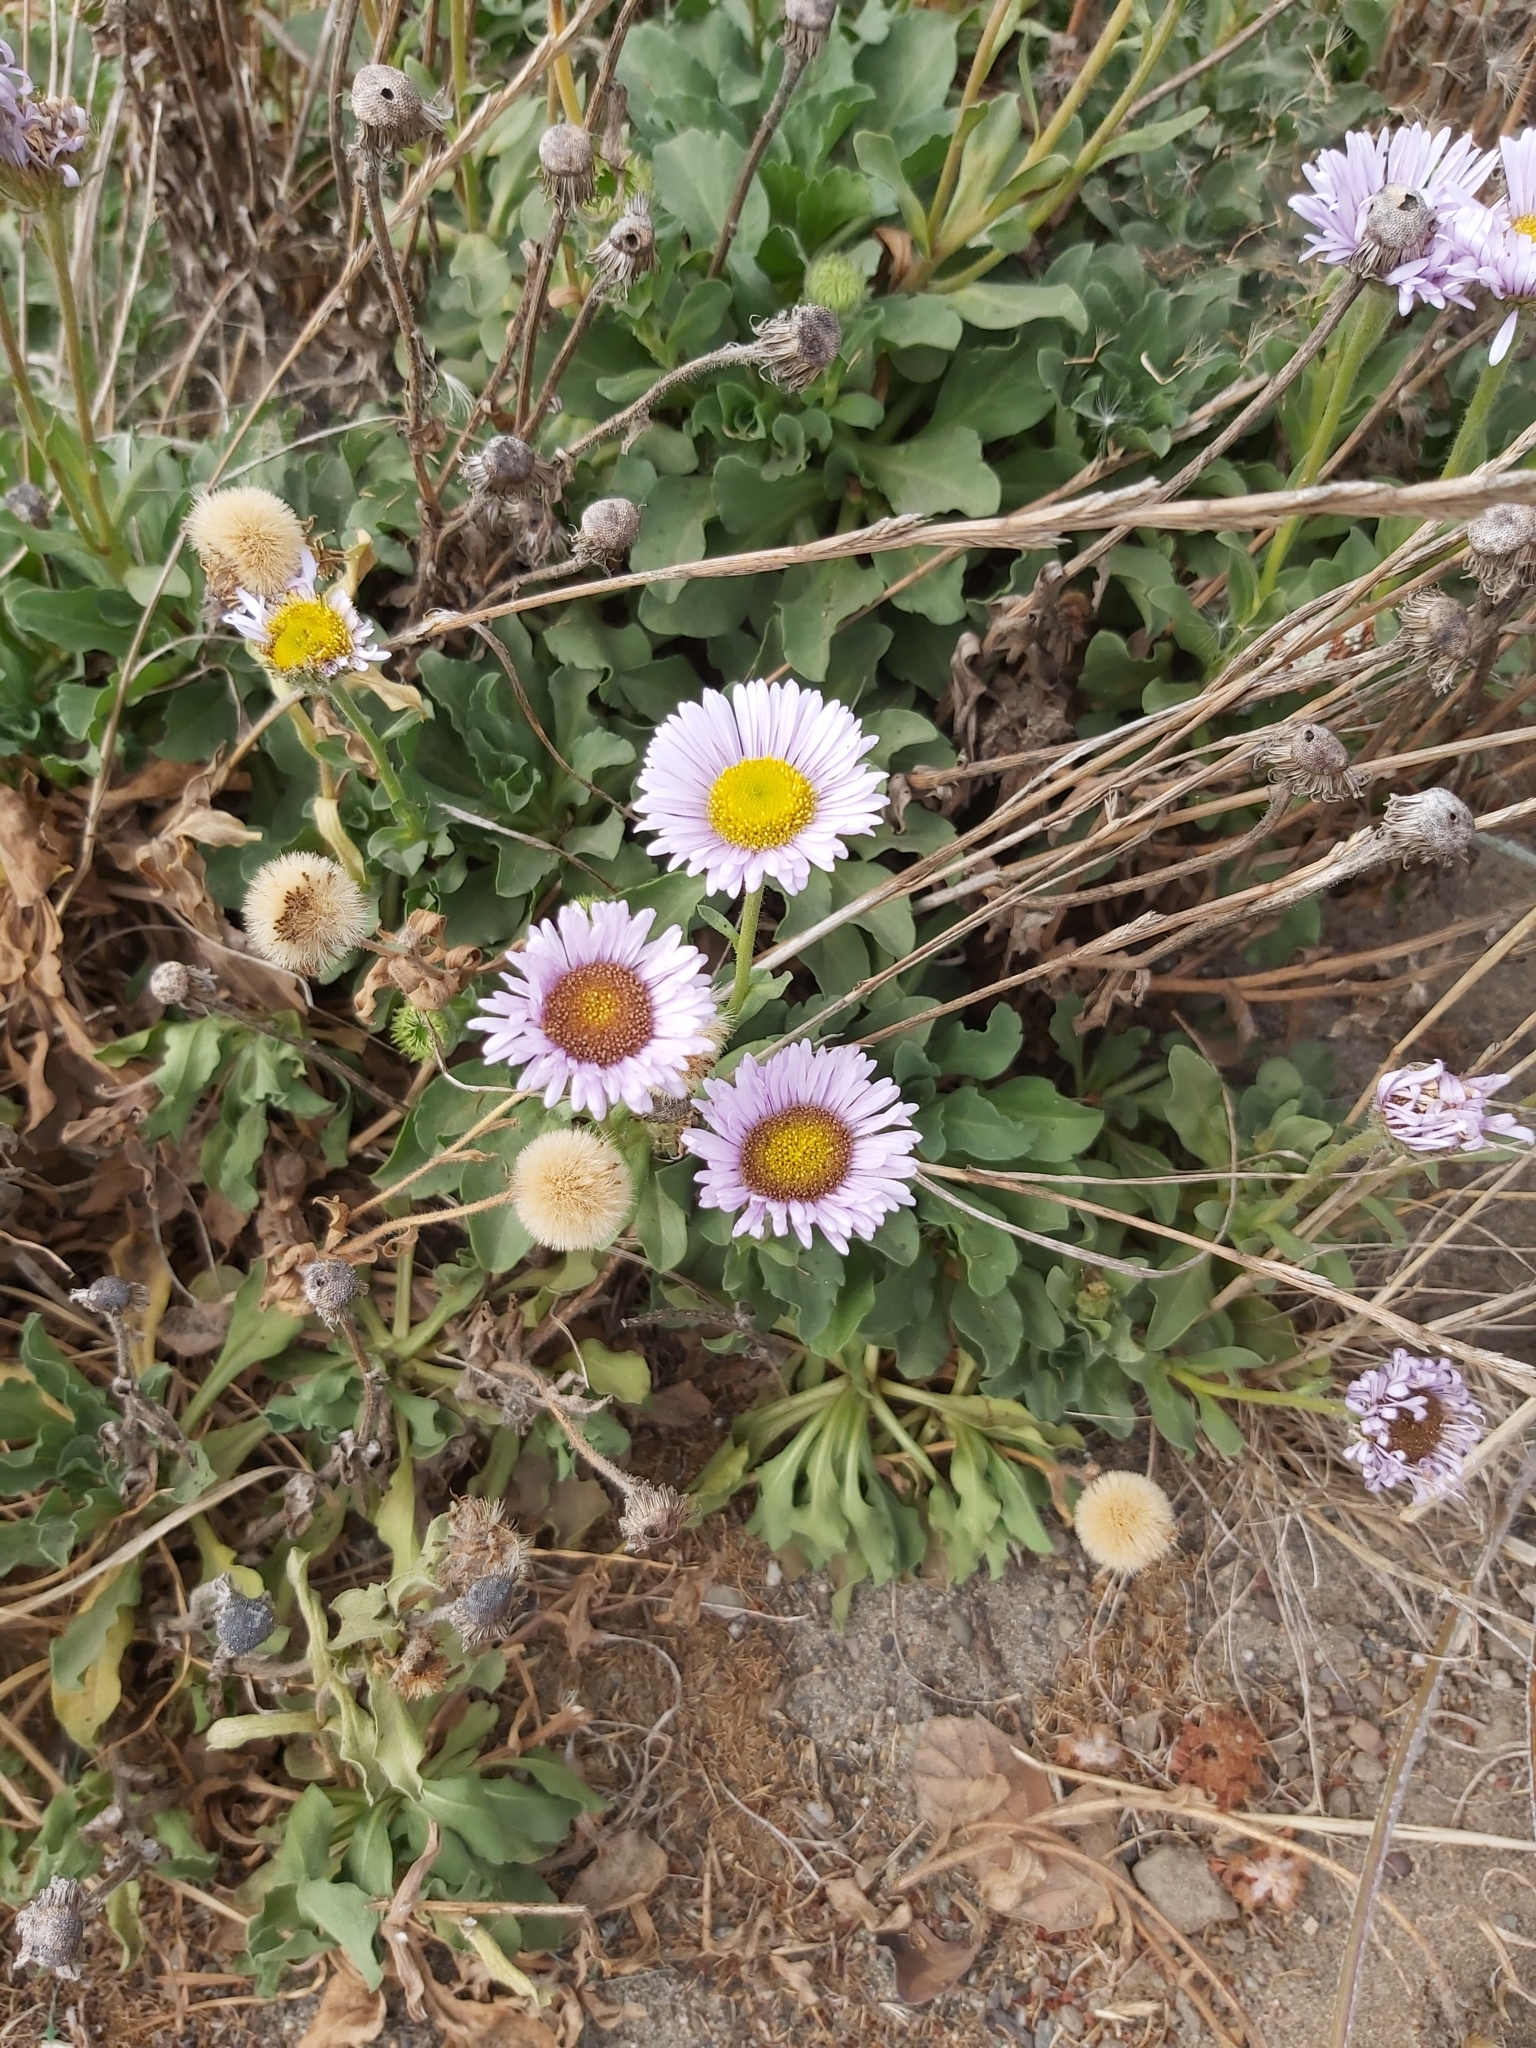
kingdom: Plantae
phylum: Tracheophyta
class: Magnoliopsida
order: Asterales
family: Asteraceae
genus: Erigeron
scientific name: Erigeron glaucus
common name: Seaside daisy
